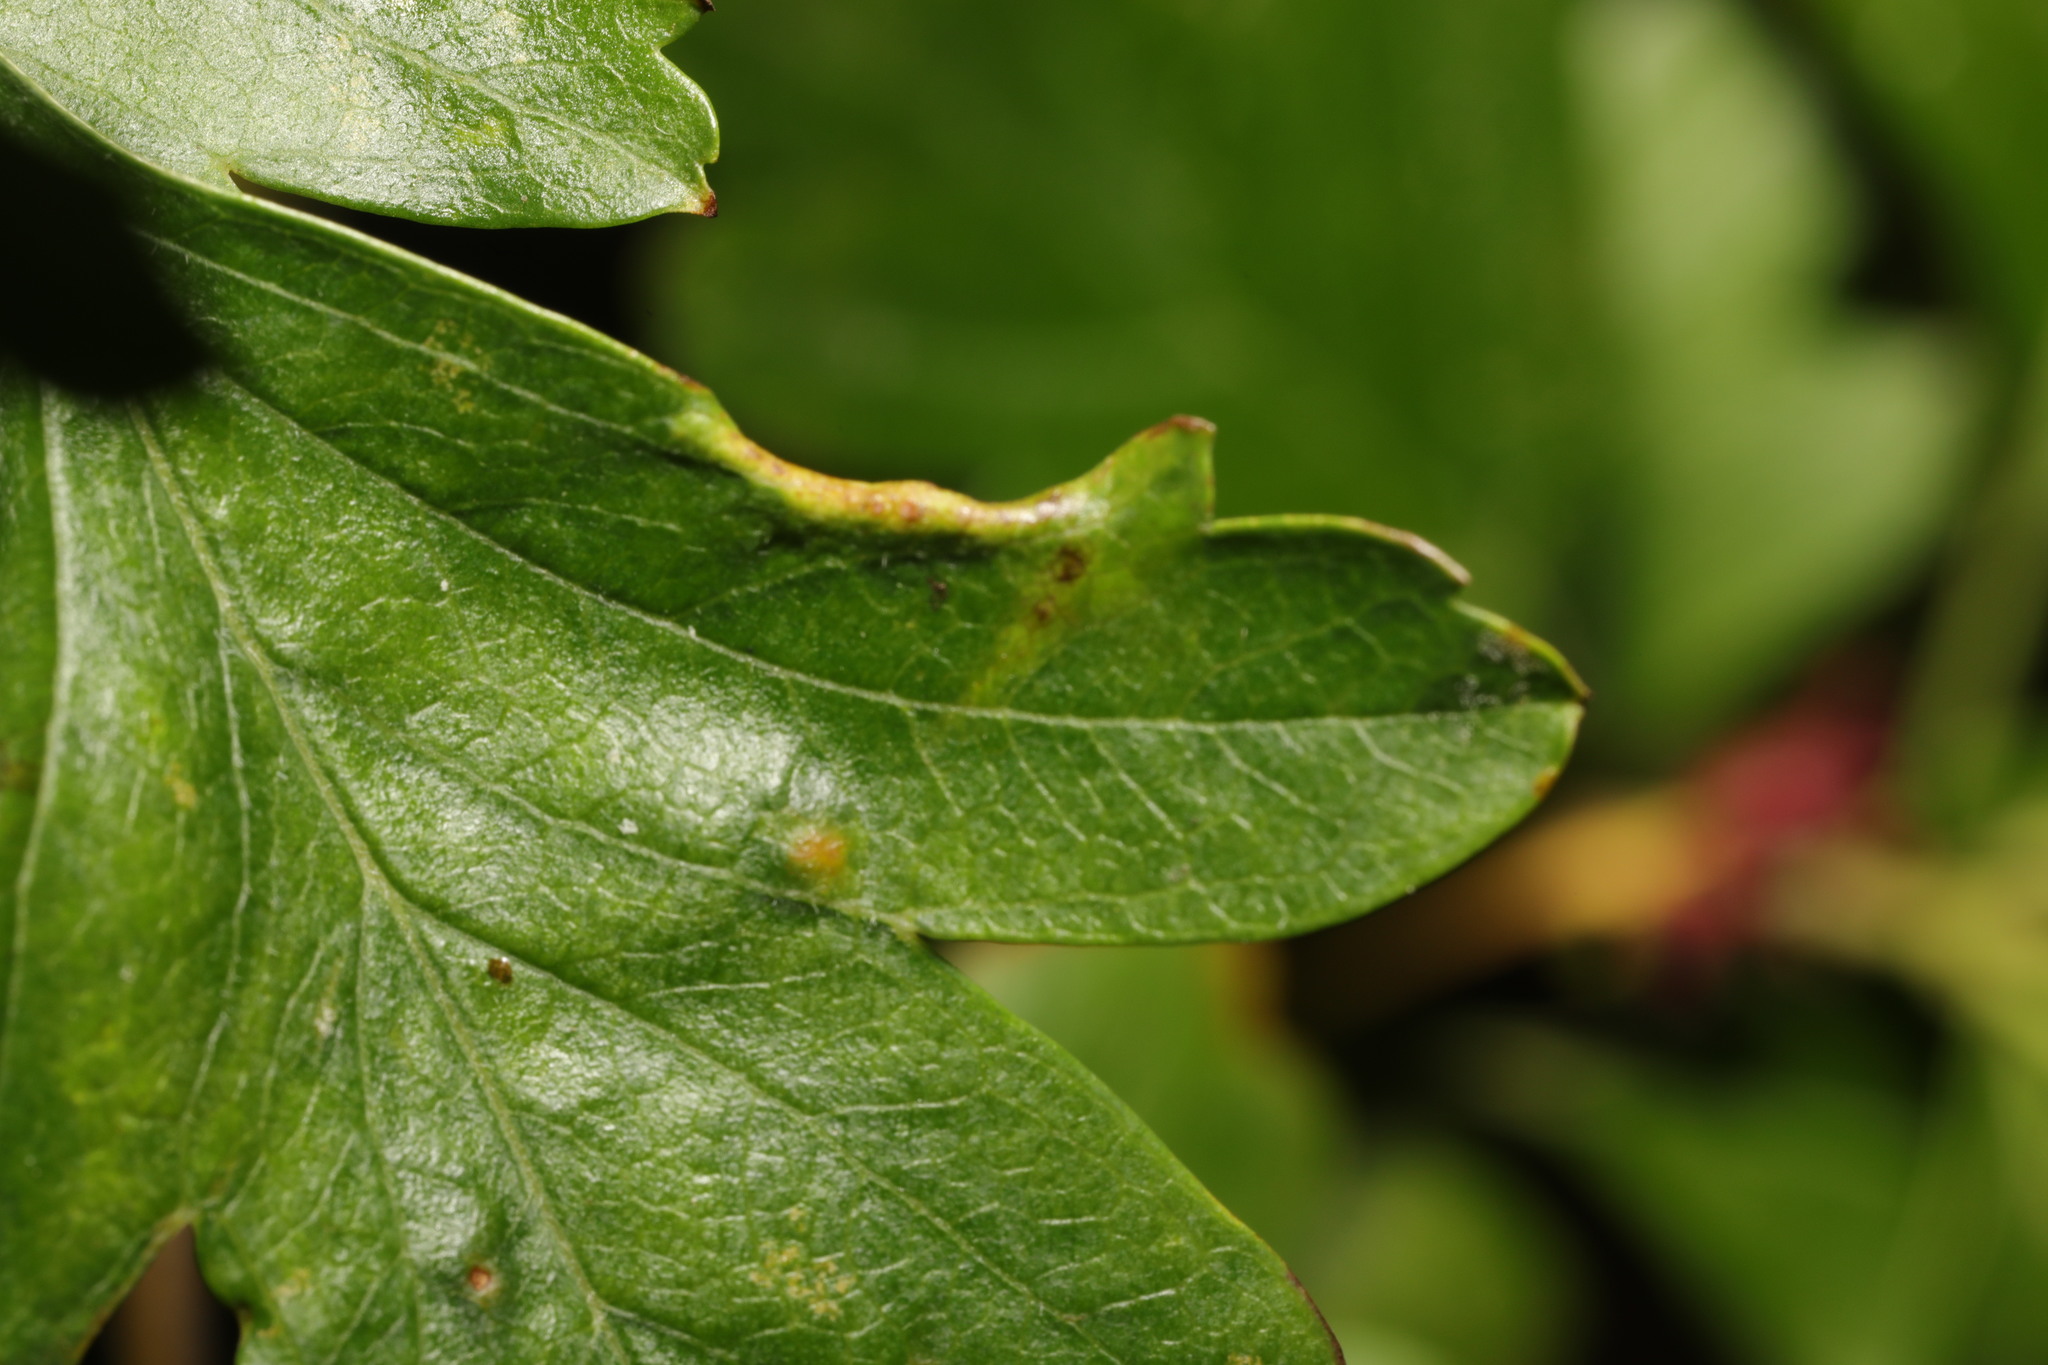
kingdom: Animalia
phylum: Arthropoda
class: Arachnida
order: Trombidiformes
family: Eriophyidae
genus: Phyllocoptes
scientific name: Phyllocoptes goniothorax
